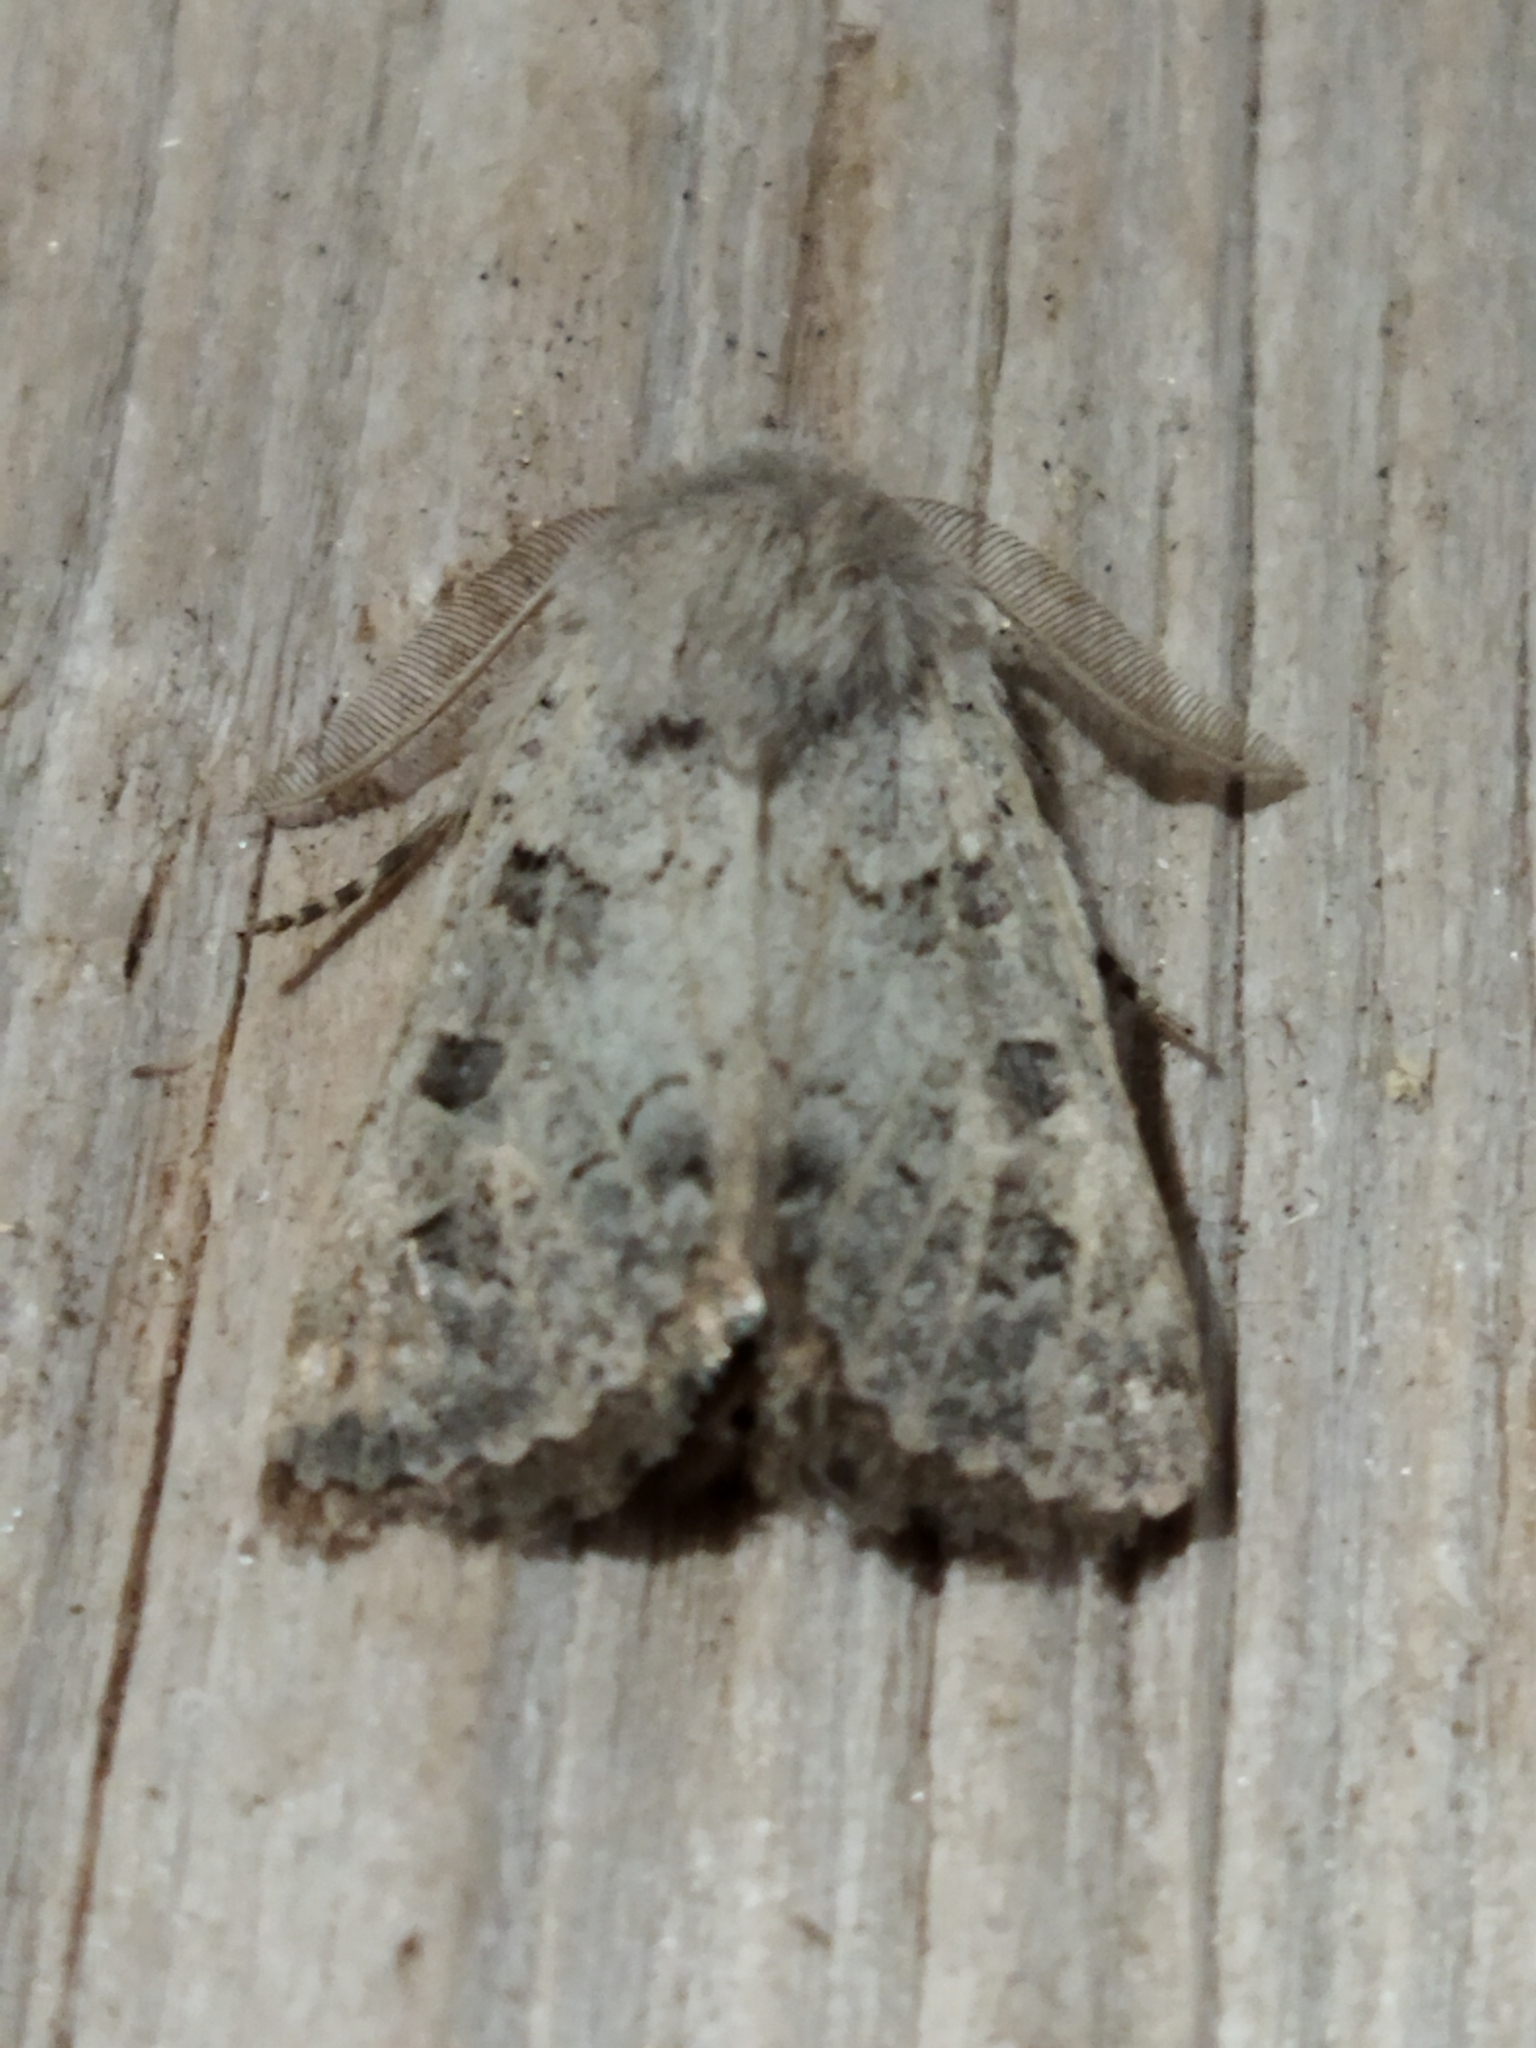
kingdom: Animalia
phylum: Arthropoda
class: Insecta
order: Lepidoptera
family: Noctuidae
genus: Episema
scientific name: Episema lederi
